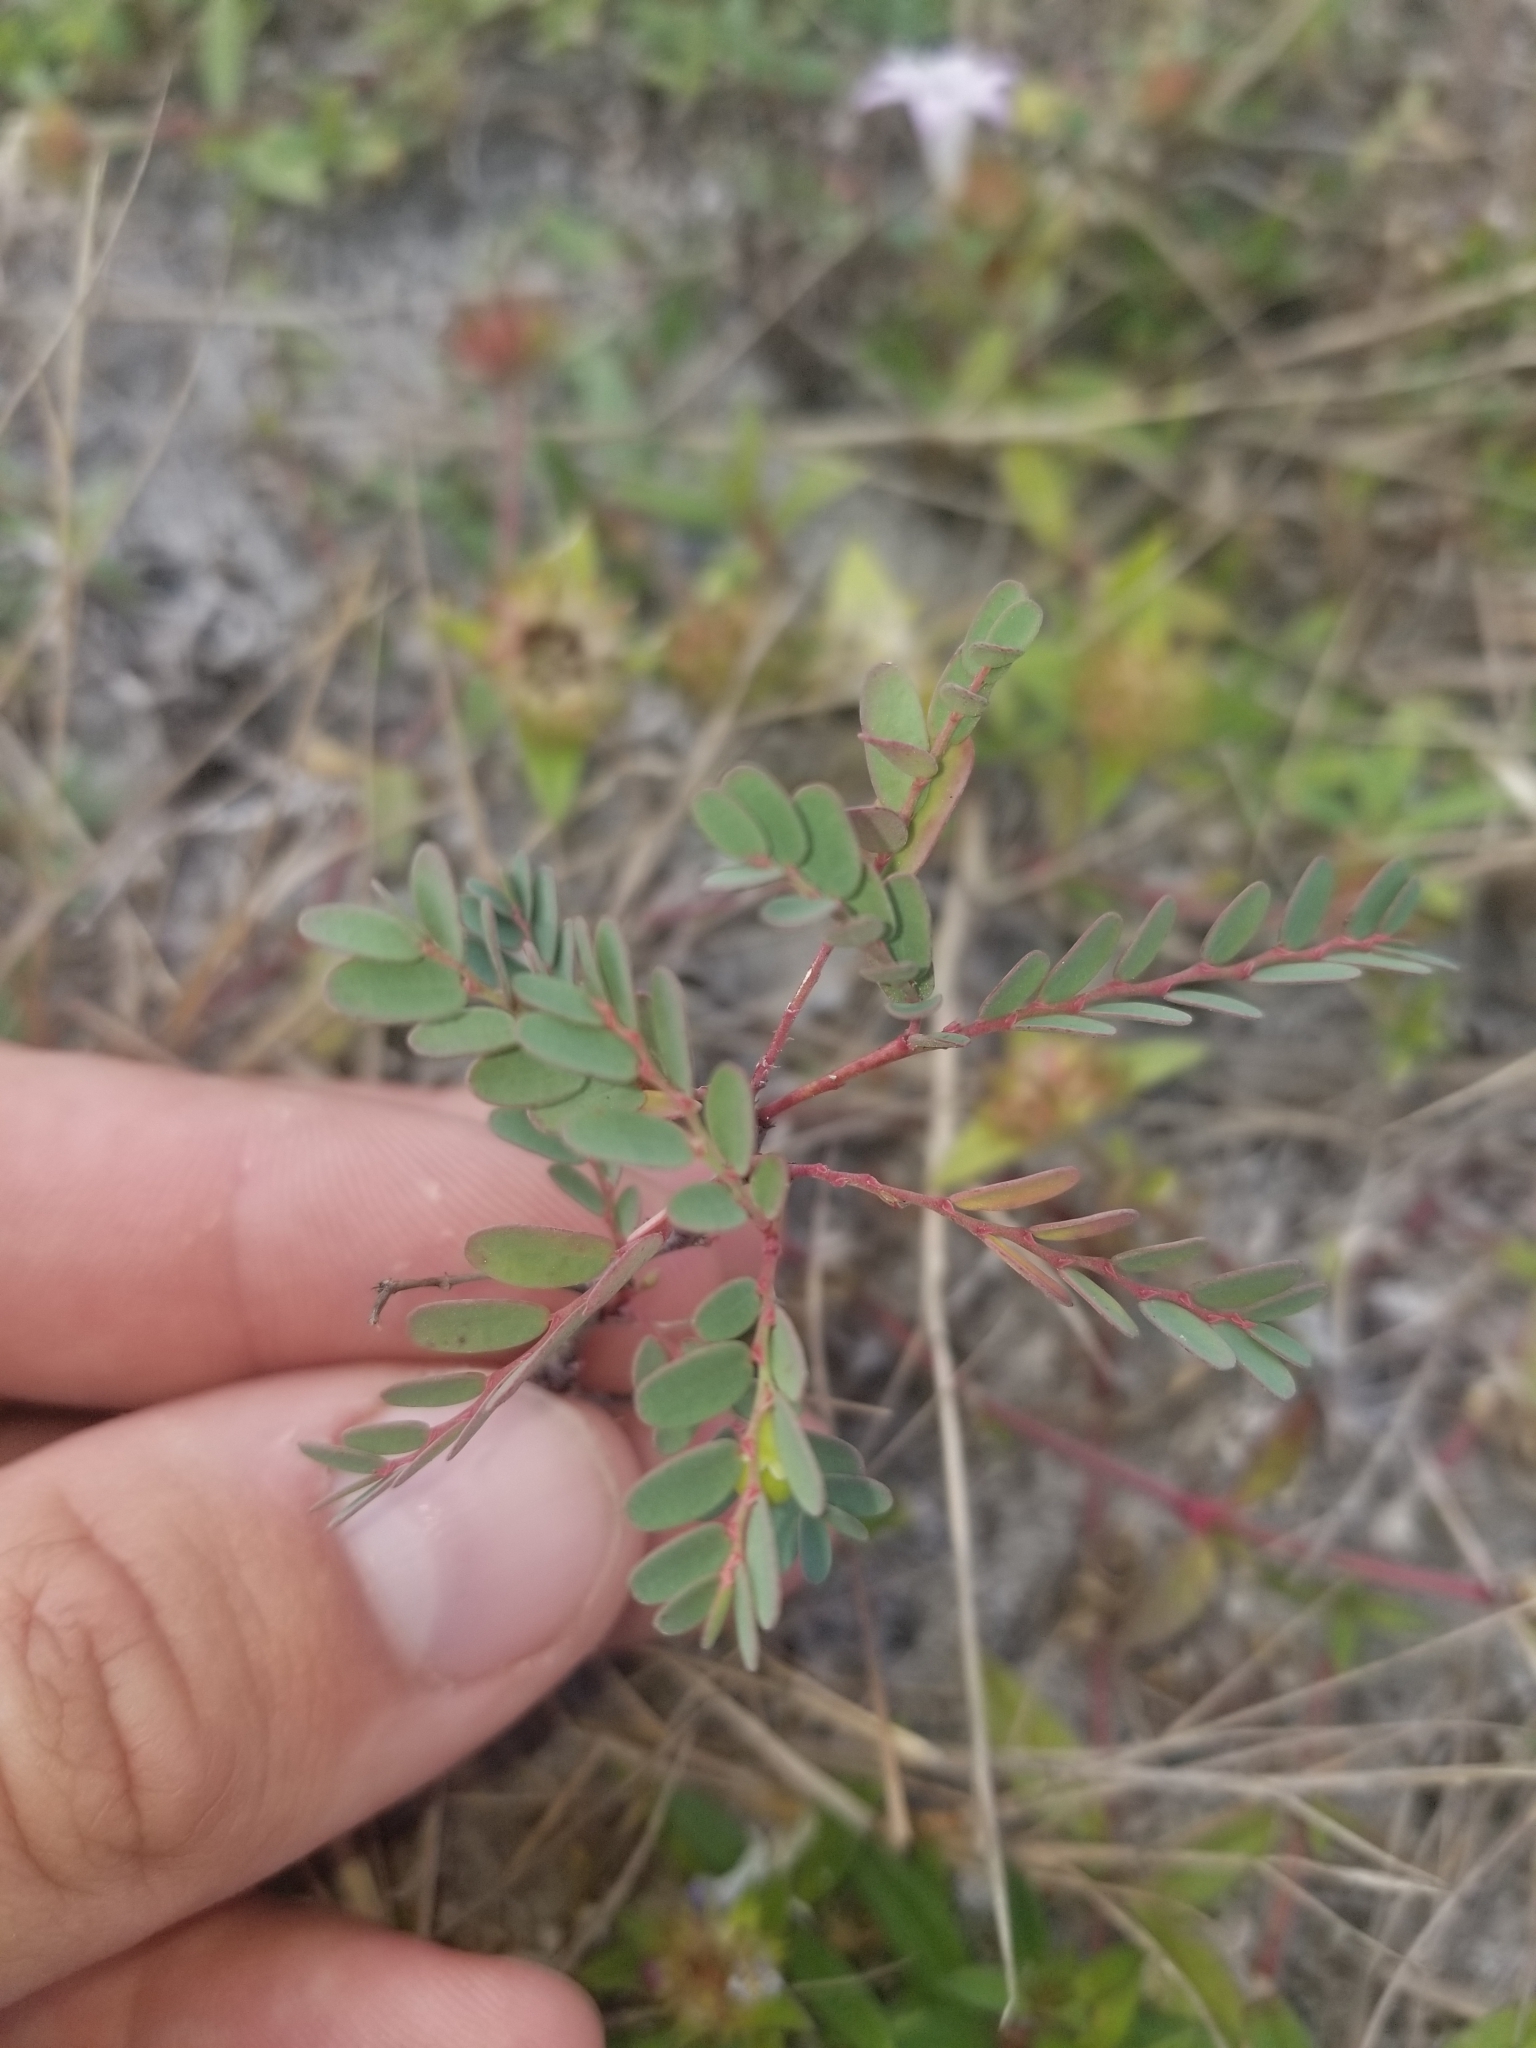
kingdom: Plantae
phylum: Tracheophyta
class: Magnoliopsida
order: Malpighiales
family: Phyllanthaceae
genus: Phyllanthus
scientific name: Phyllanthus abnormis
